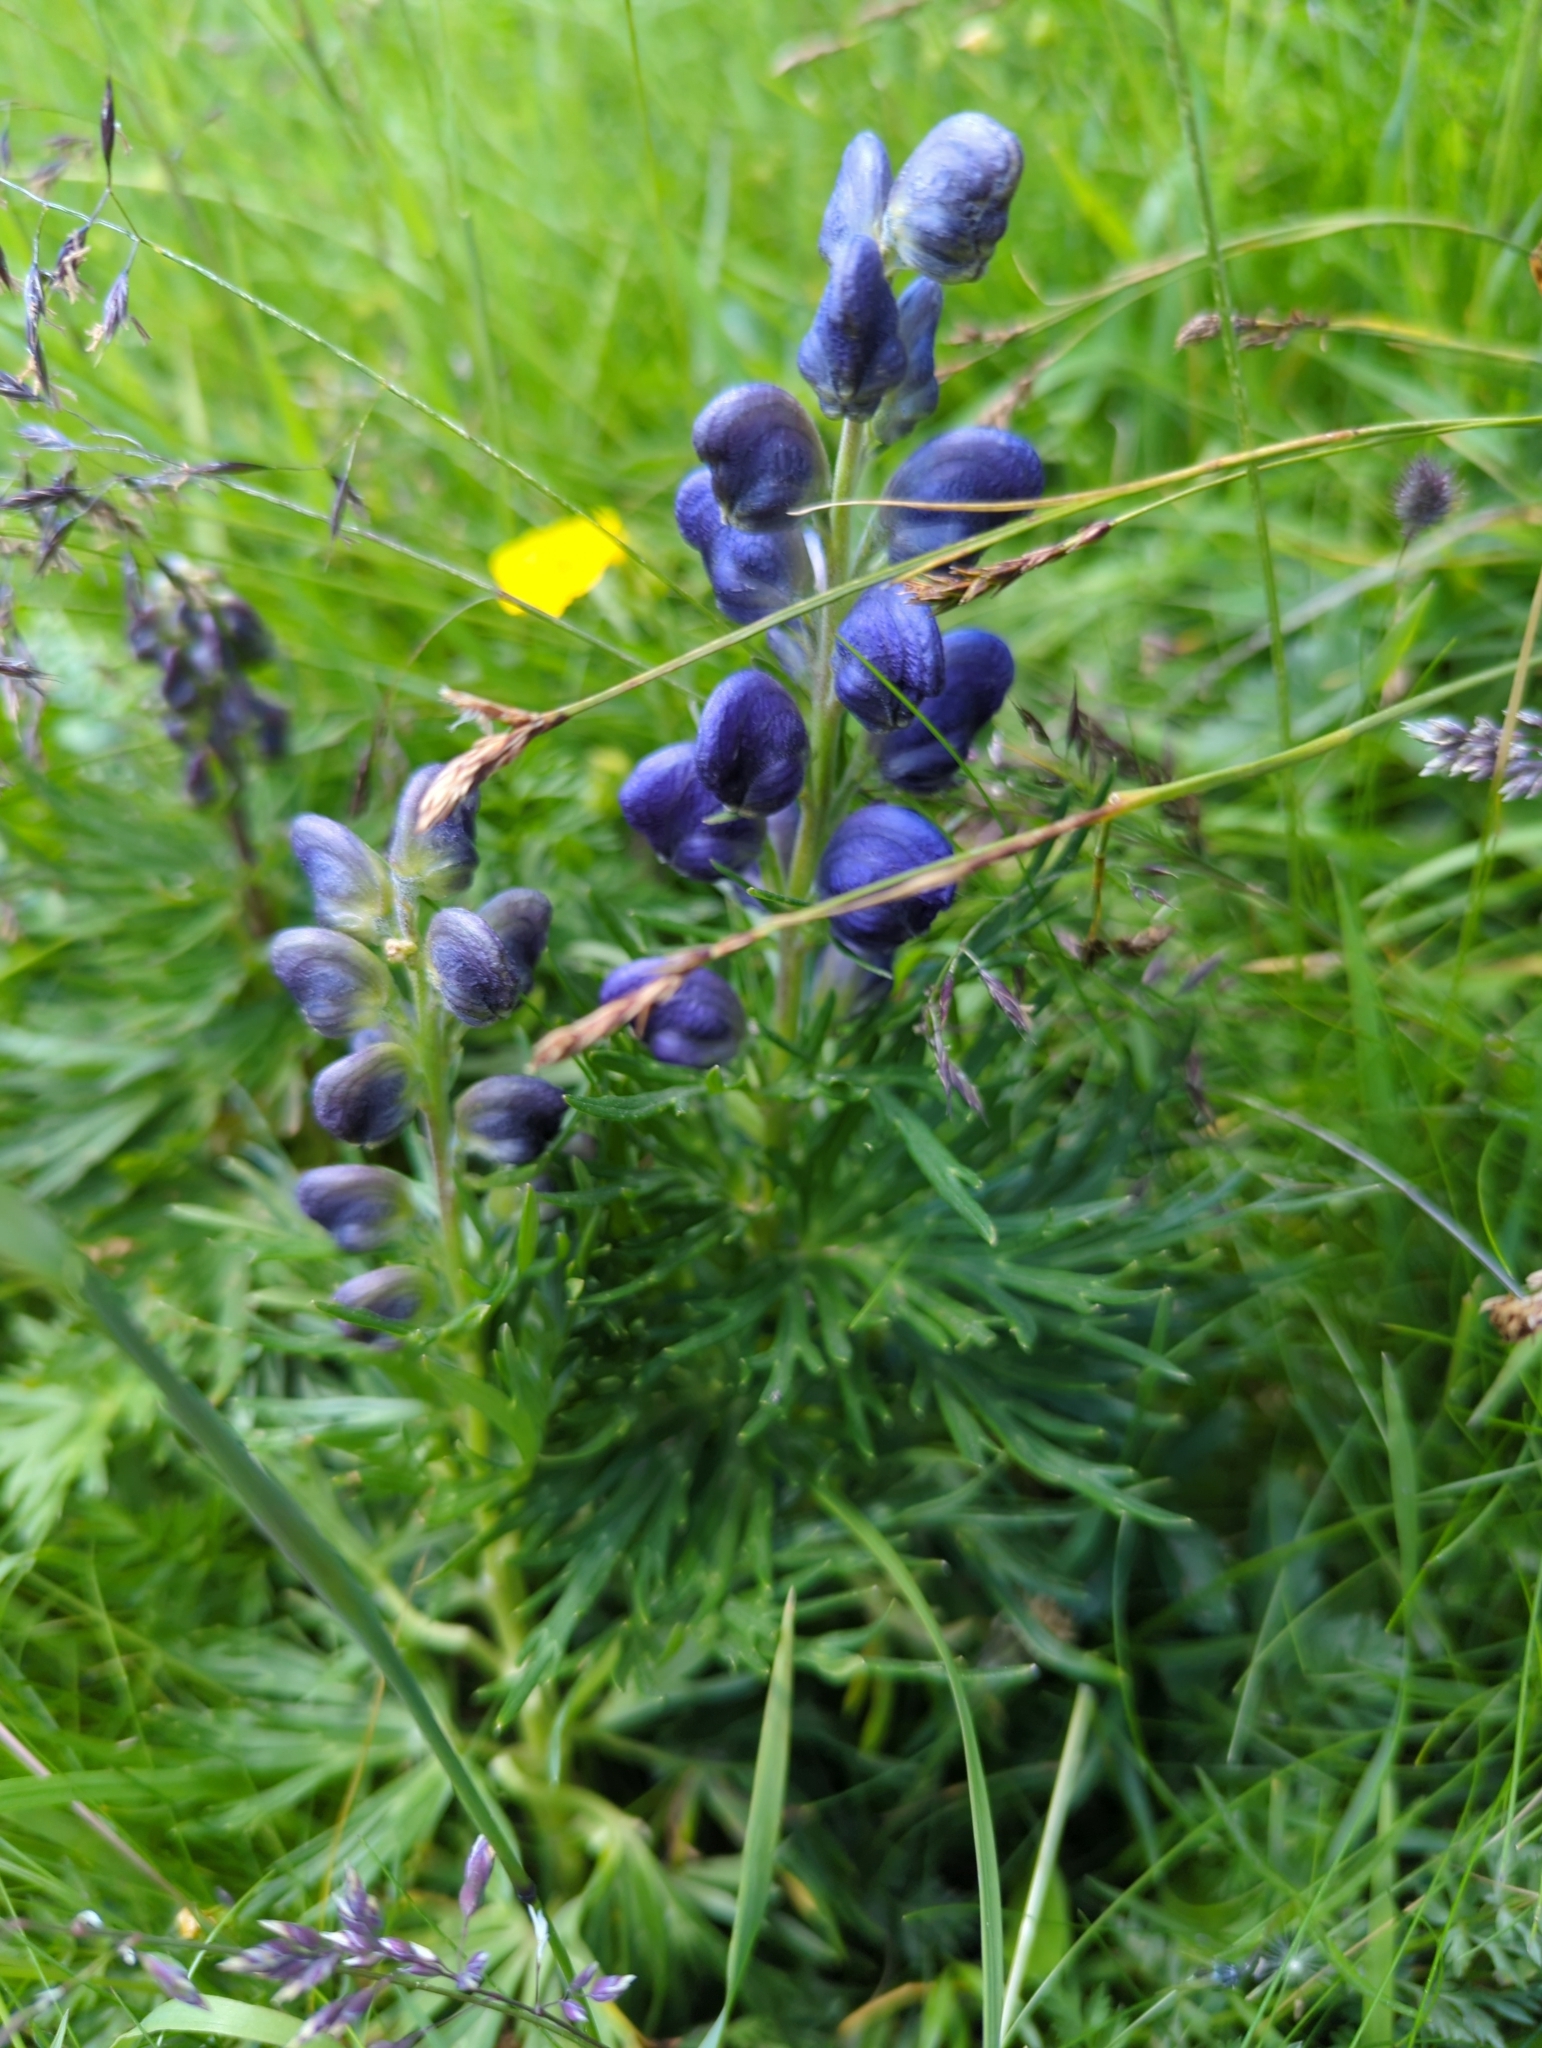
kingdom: Plantae
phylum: Tracheophyta
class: Magnoliopsida
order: Ranunculales
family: Ranunculaceae
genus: Aconitum
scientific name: Aconitum napellus
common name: Garden monkshood
